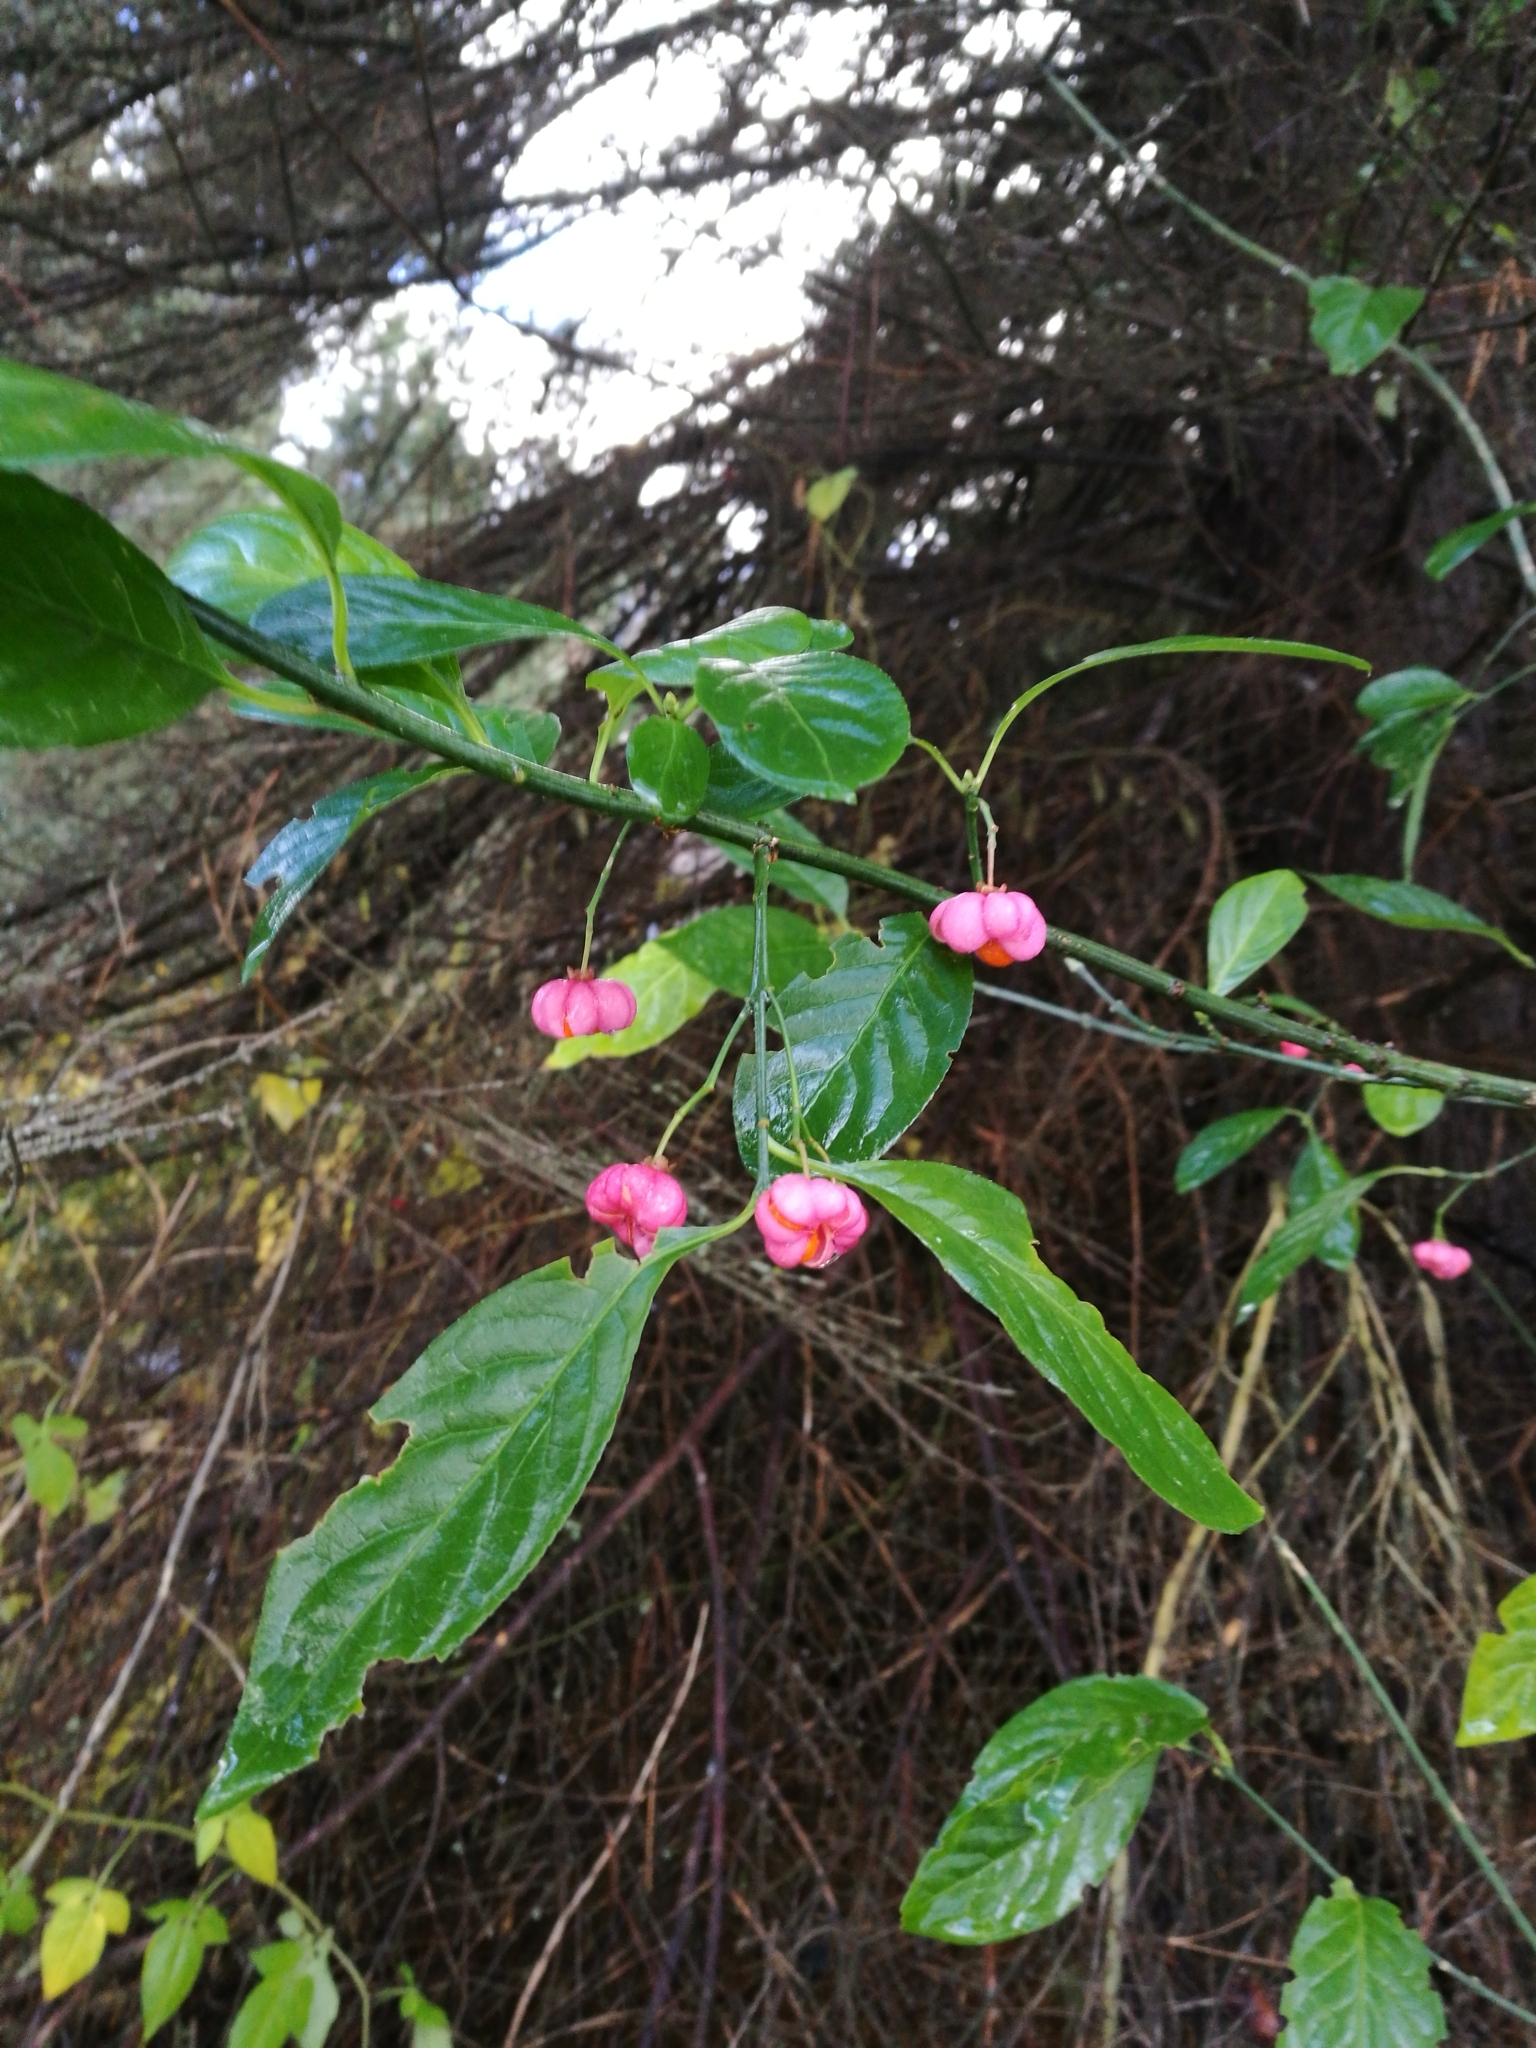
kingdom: Plantae
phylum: Tracheophyta
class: Magnoliopsida
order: Celastrales
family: Celastraceae
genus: Euonymus
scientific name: Euonymus europaeus
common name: Spindle
